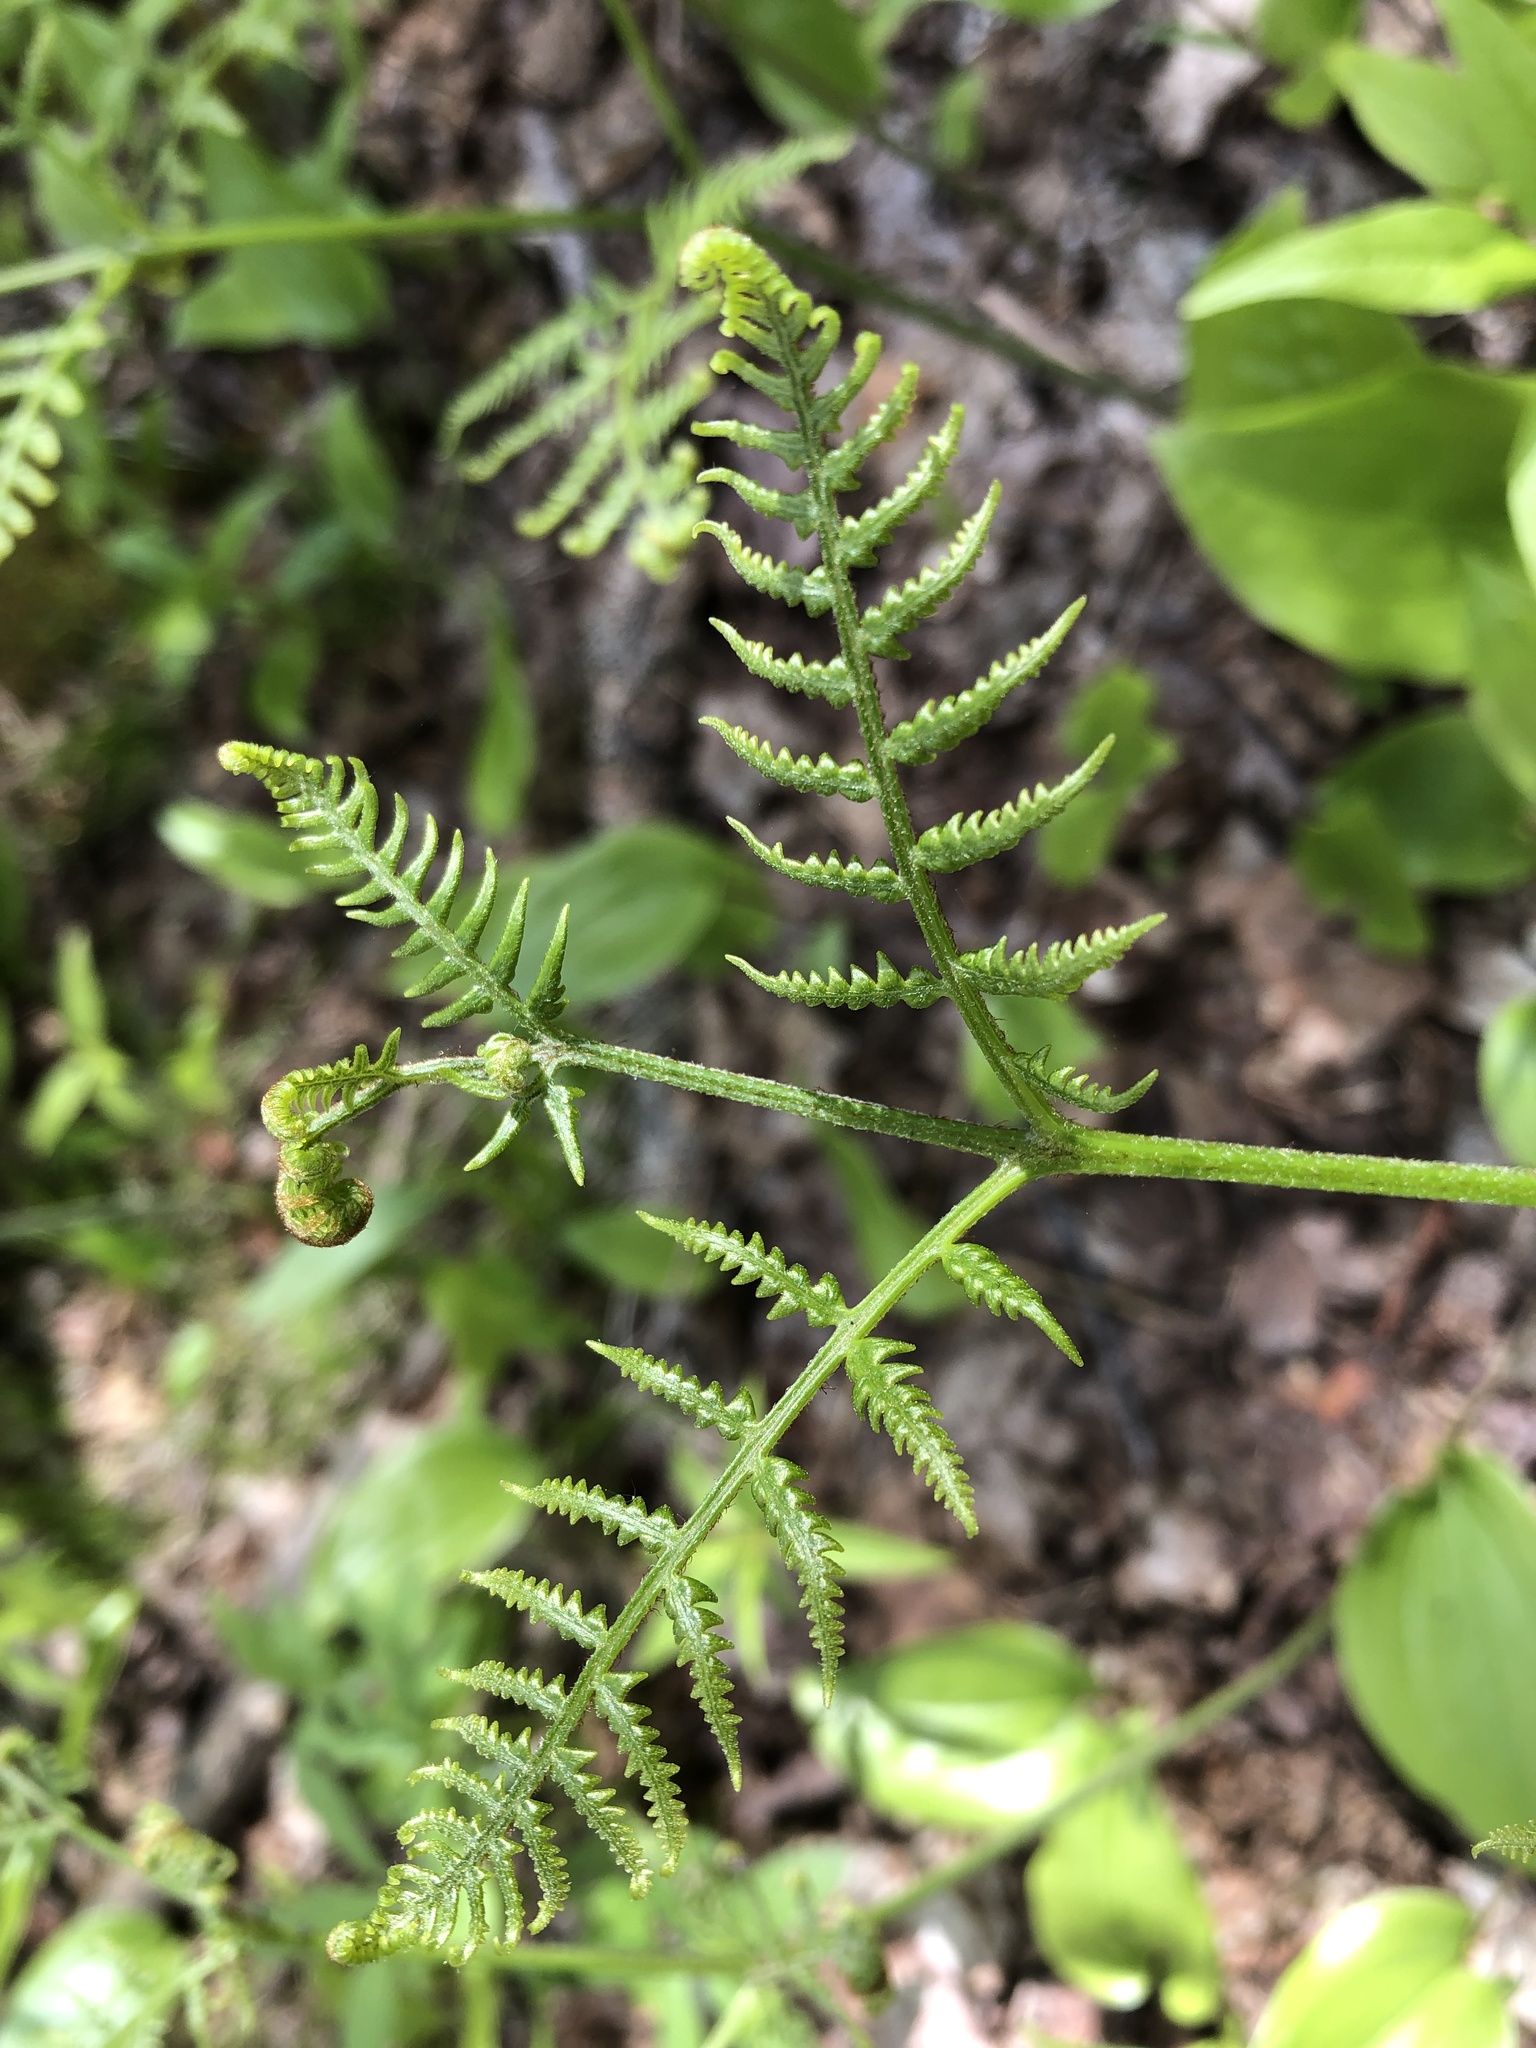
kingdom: Plantae
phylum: Tracheophyta
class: Polypodiopsida
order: Polypodiales
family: Dennstaedtiaceae
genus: Pteridium
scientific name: Pteridium aquilinum
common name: Bracken
